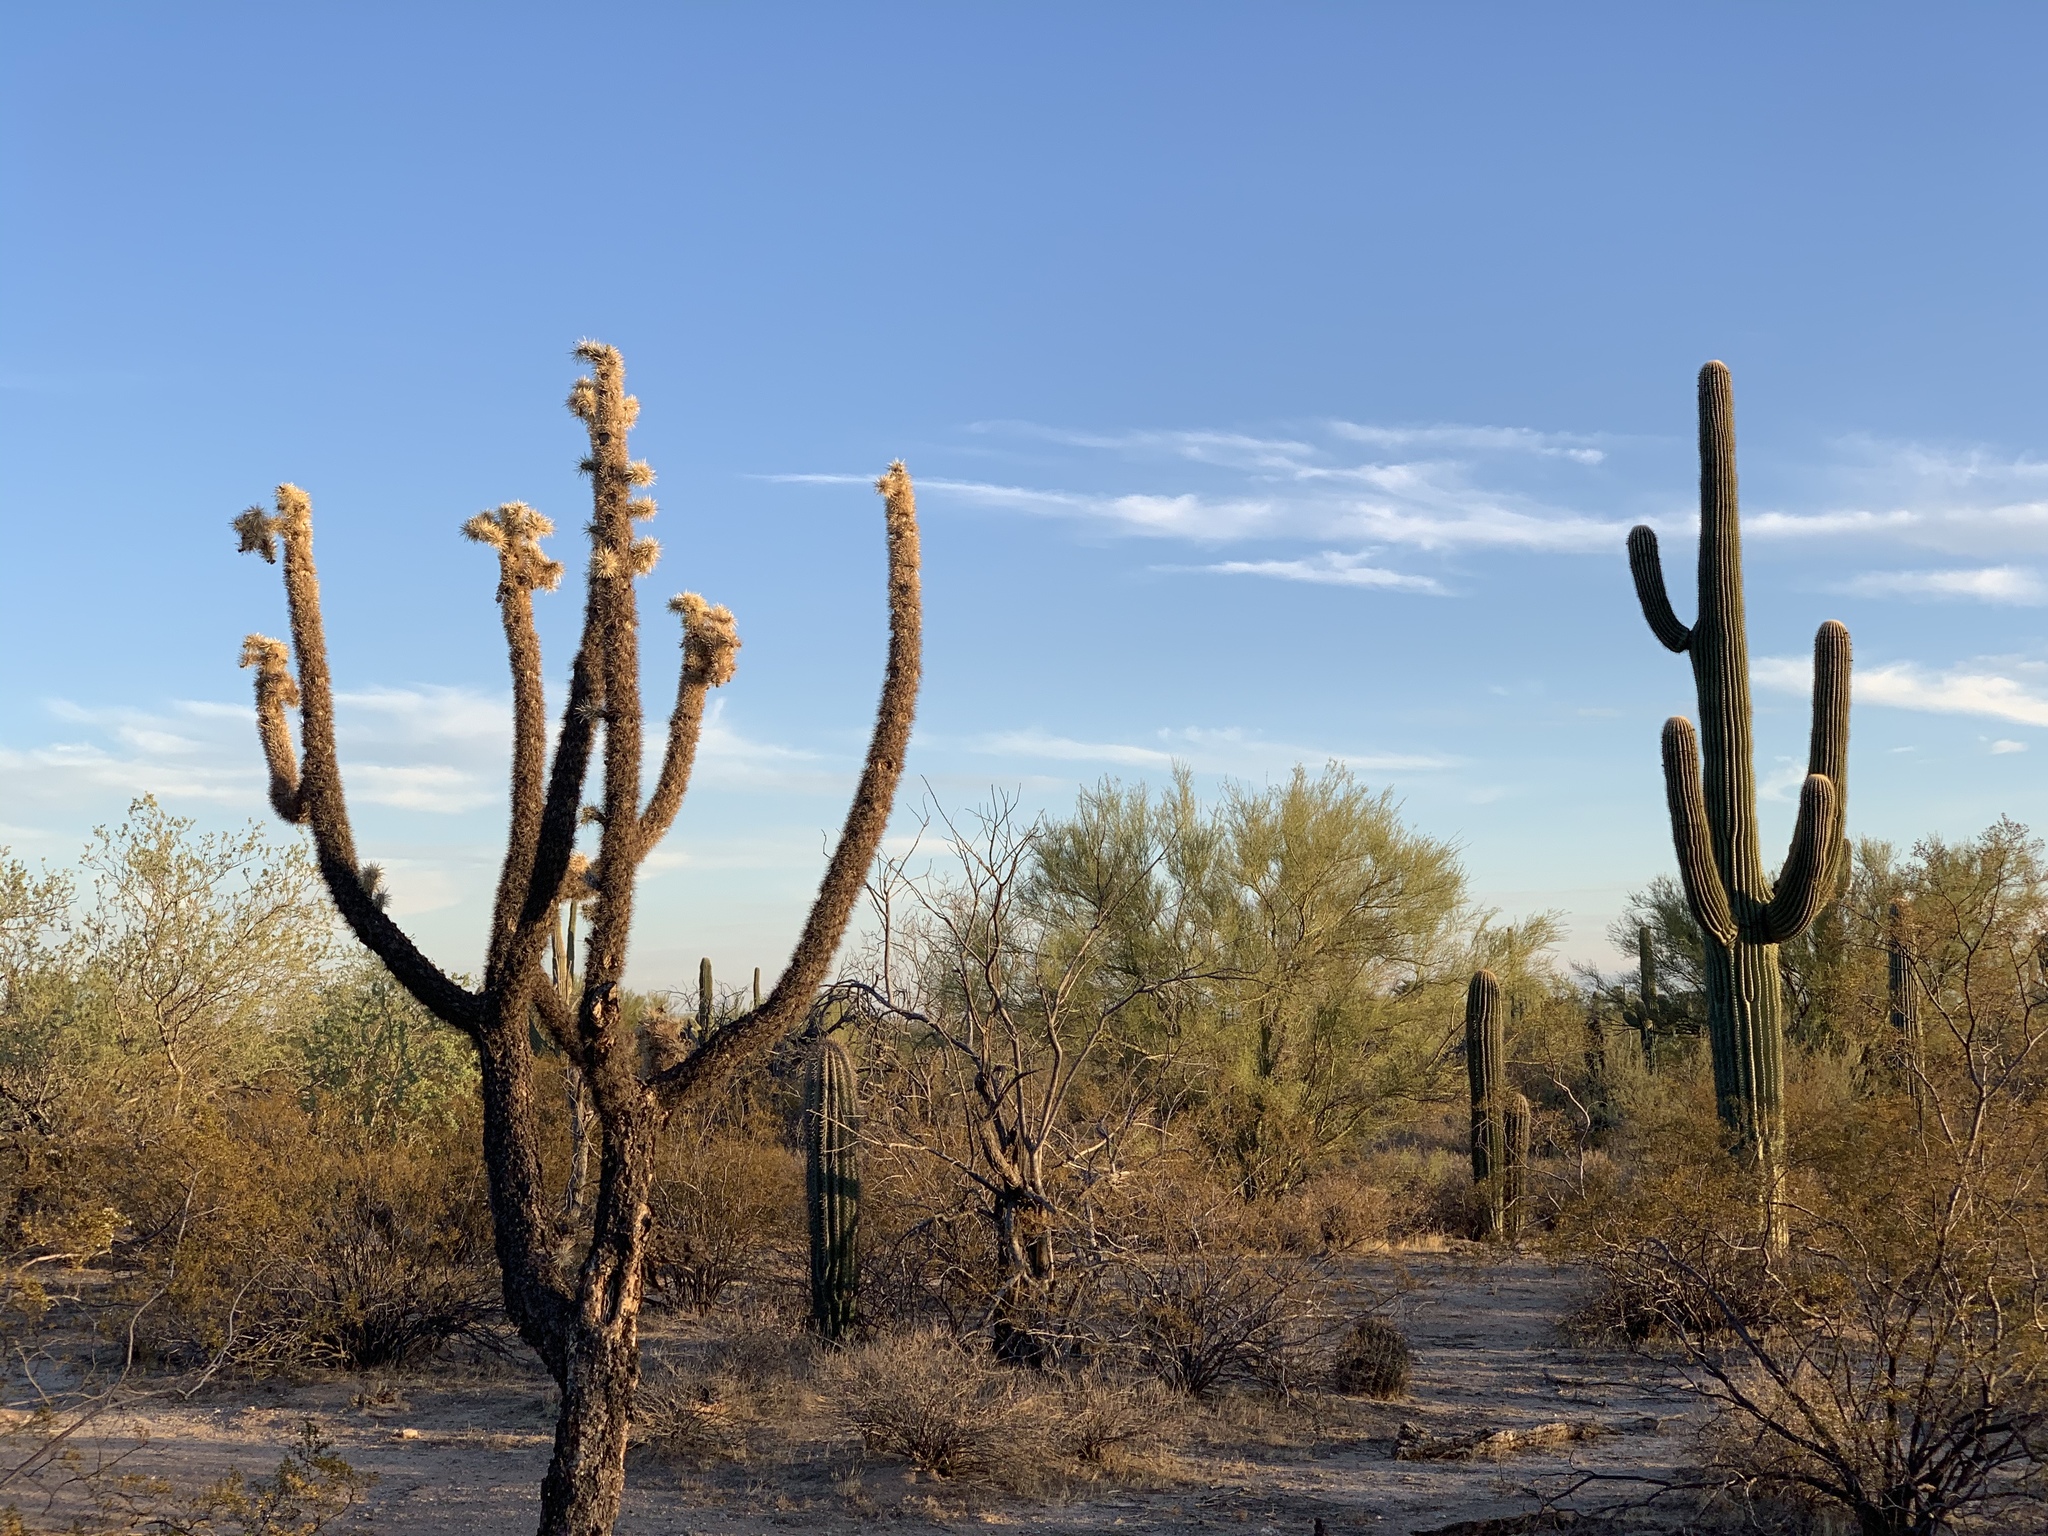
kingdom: Plantae
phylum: Tracheophyta
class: Magnoliopsida
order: Caryophyllales
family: Cactaceae
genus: Cylindropuntia
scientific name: Cylindropuntia fulgida
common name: Jumping cholla
